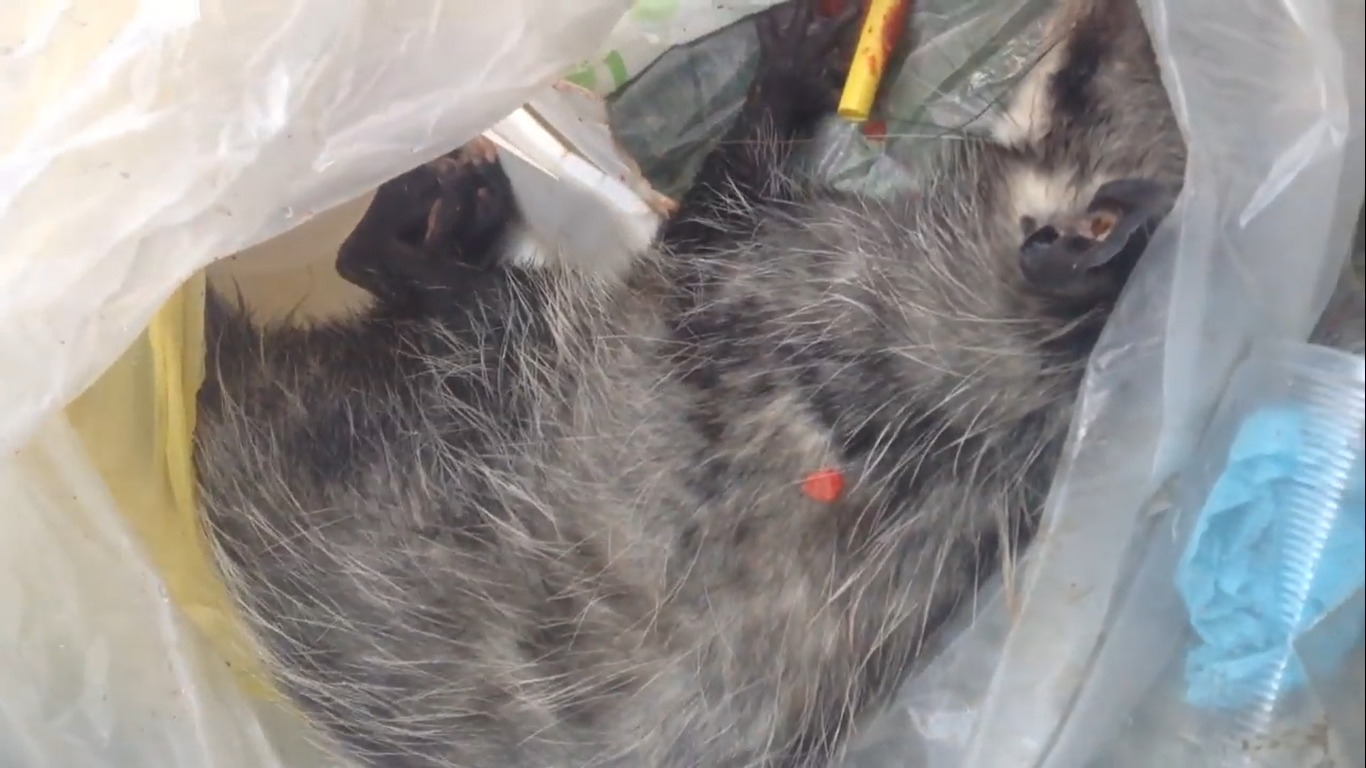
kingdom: Animalia
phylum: Chordata
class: Mammalia
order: Didelphimorphia
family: Didelphidae
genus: Didelphis
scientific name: Didelphis virginiana
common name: Virginia opossum
